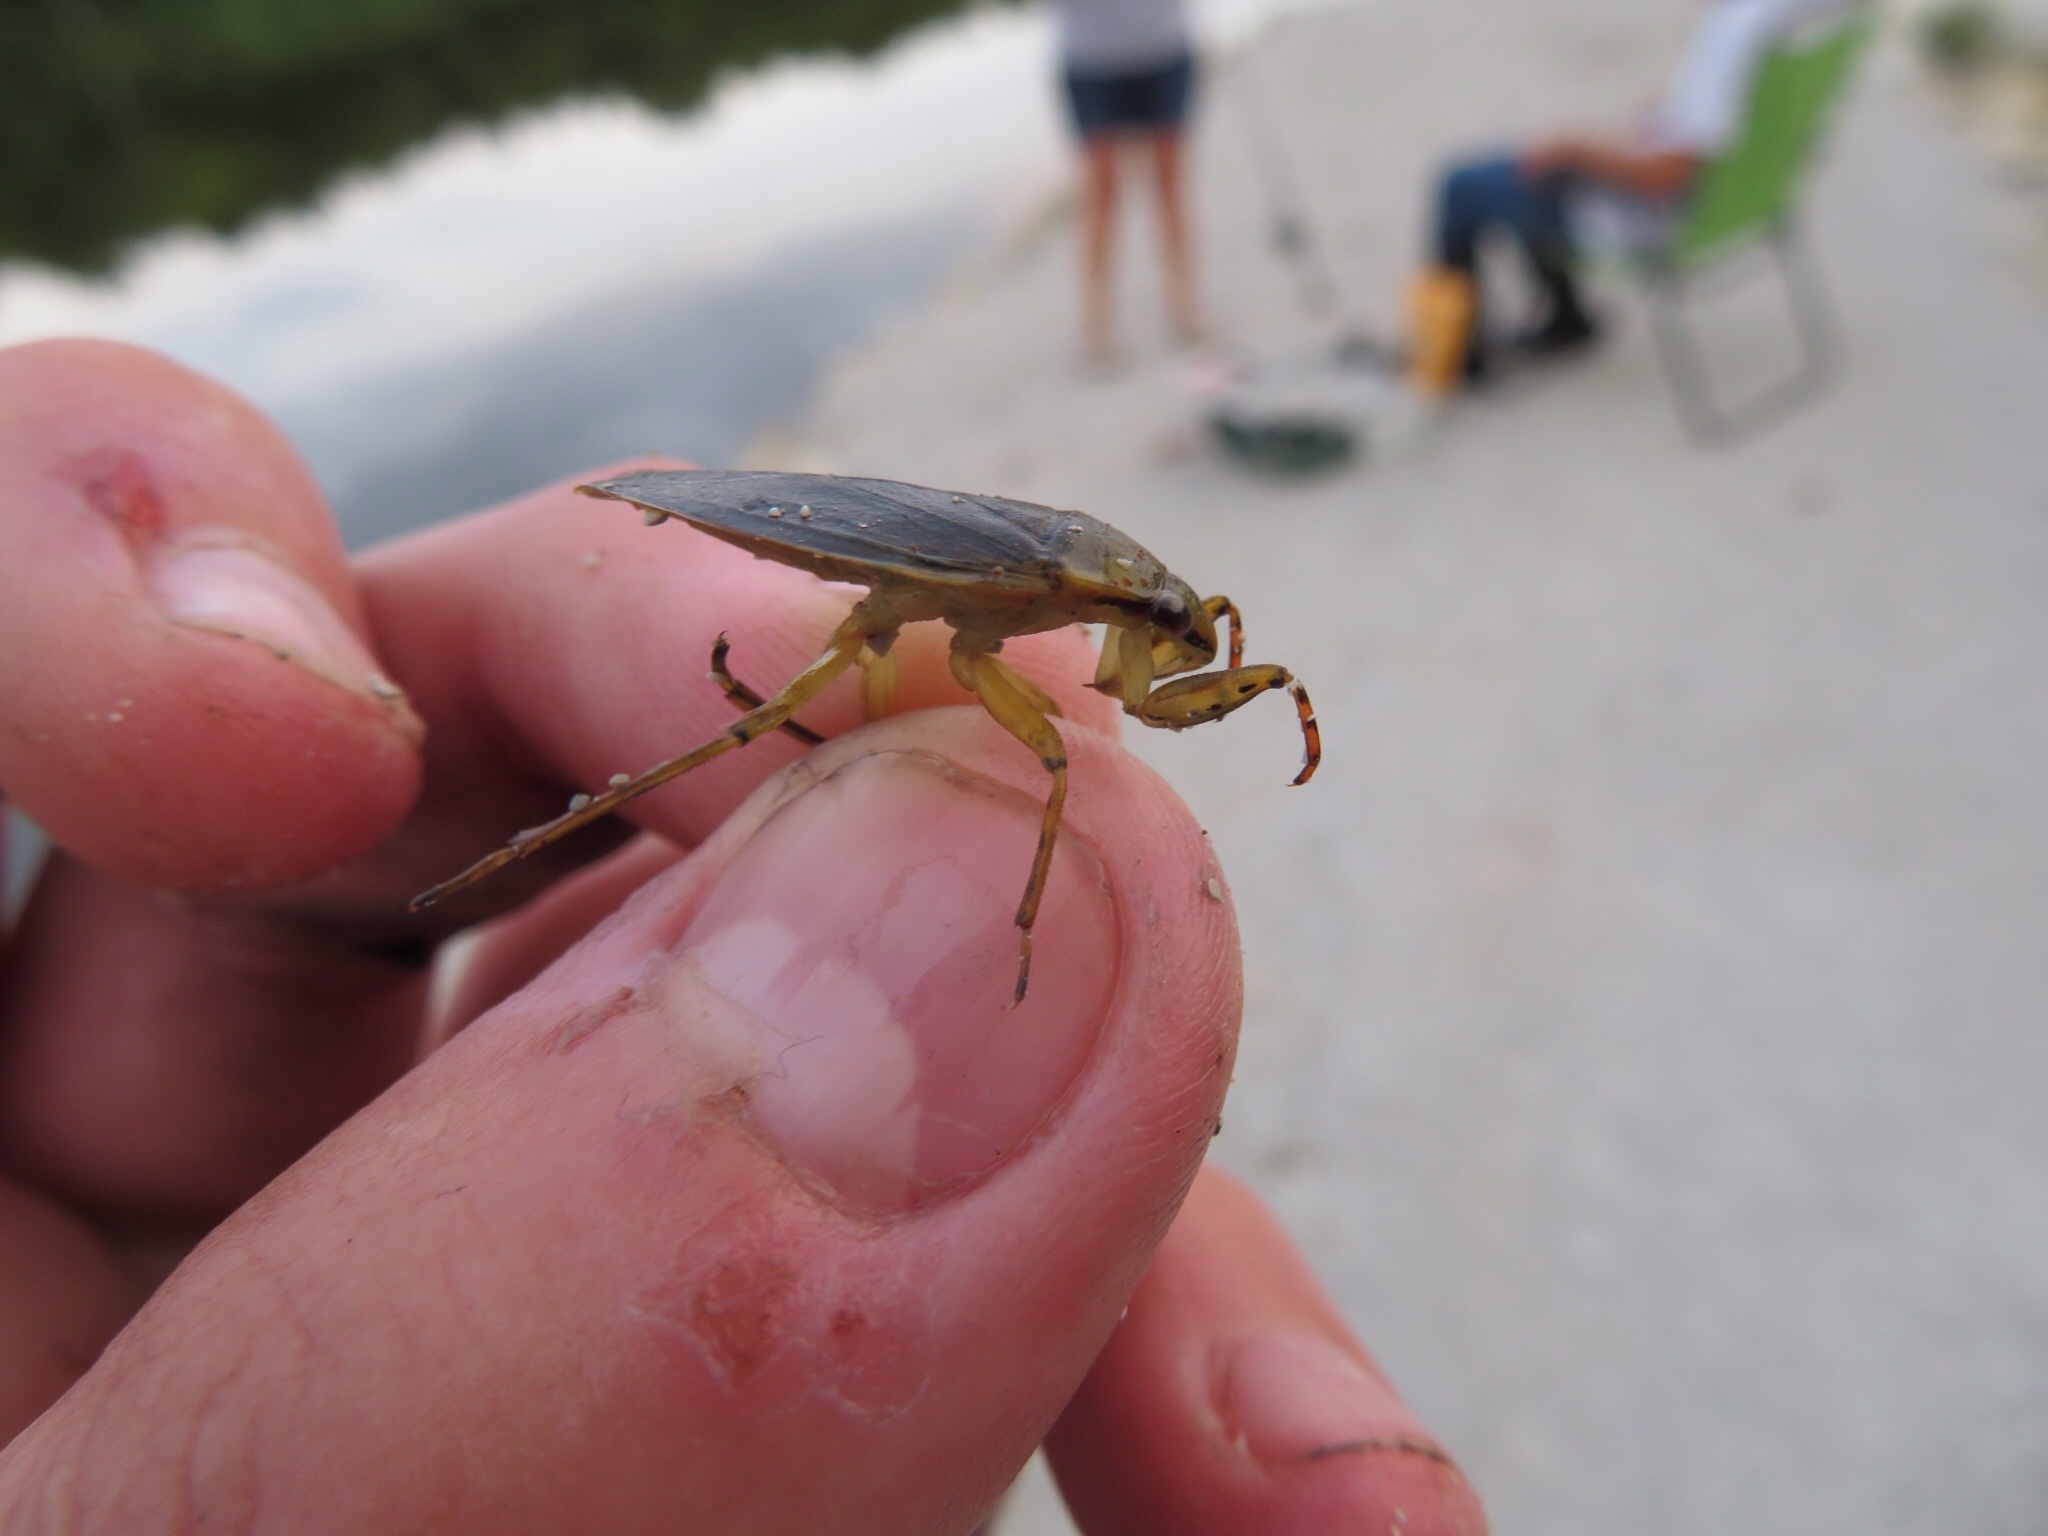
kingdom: Animalia
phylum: Arthropoda
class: Insecta
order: Hemiptera
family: Belostomatidae
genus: Belostoma
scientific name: Belostoma
